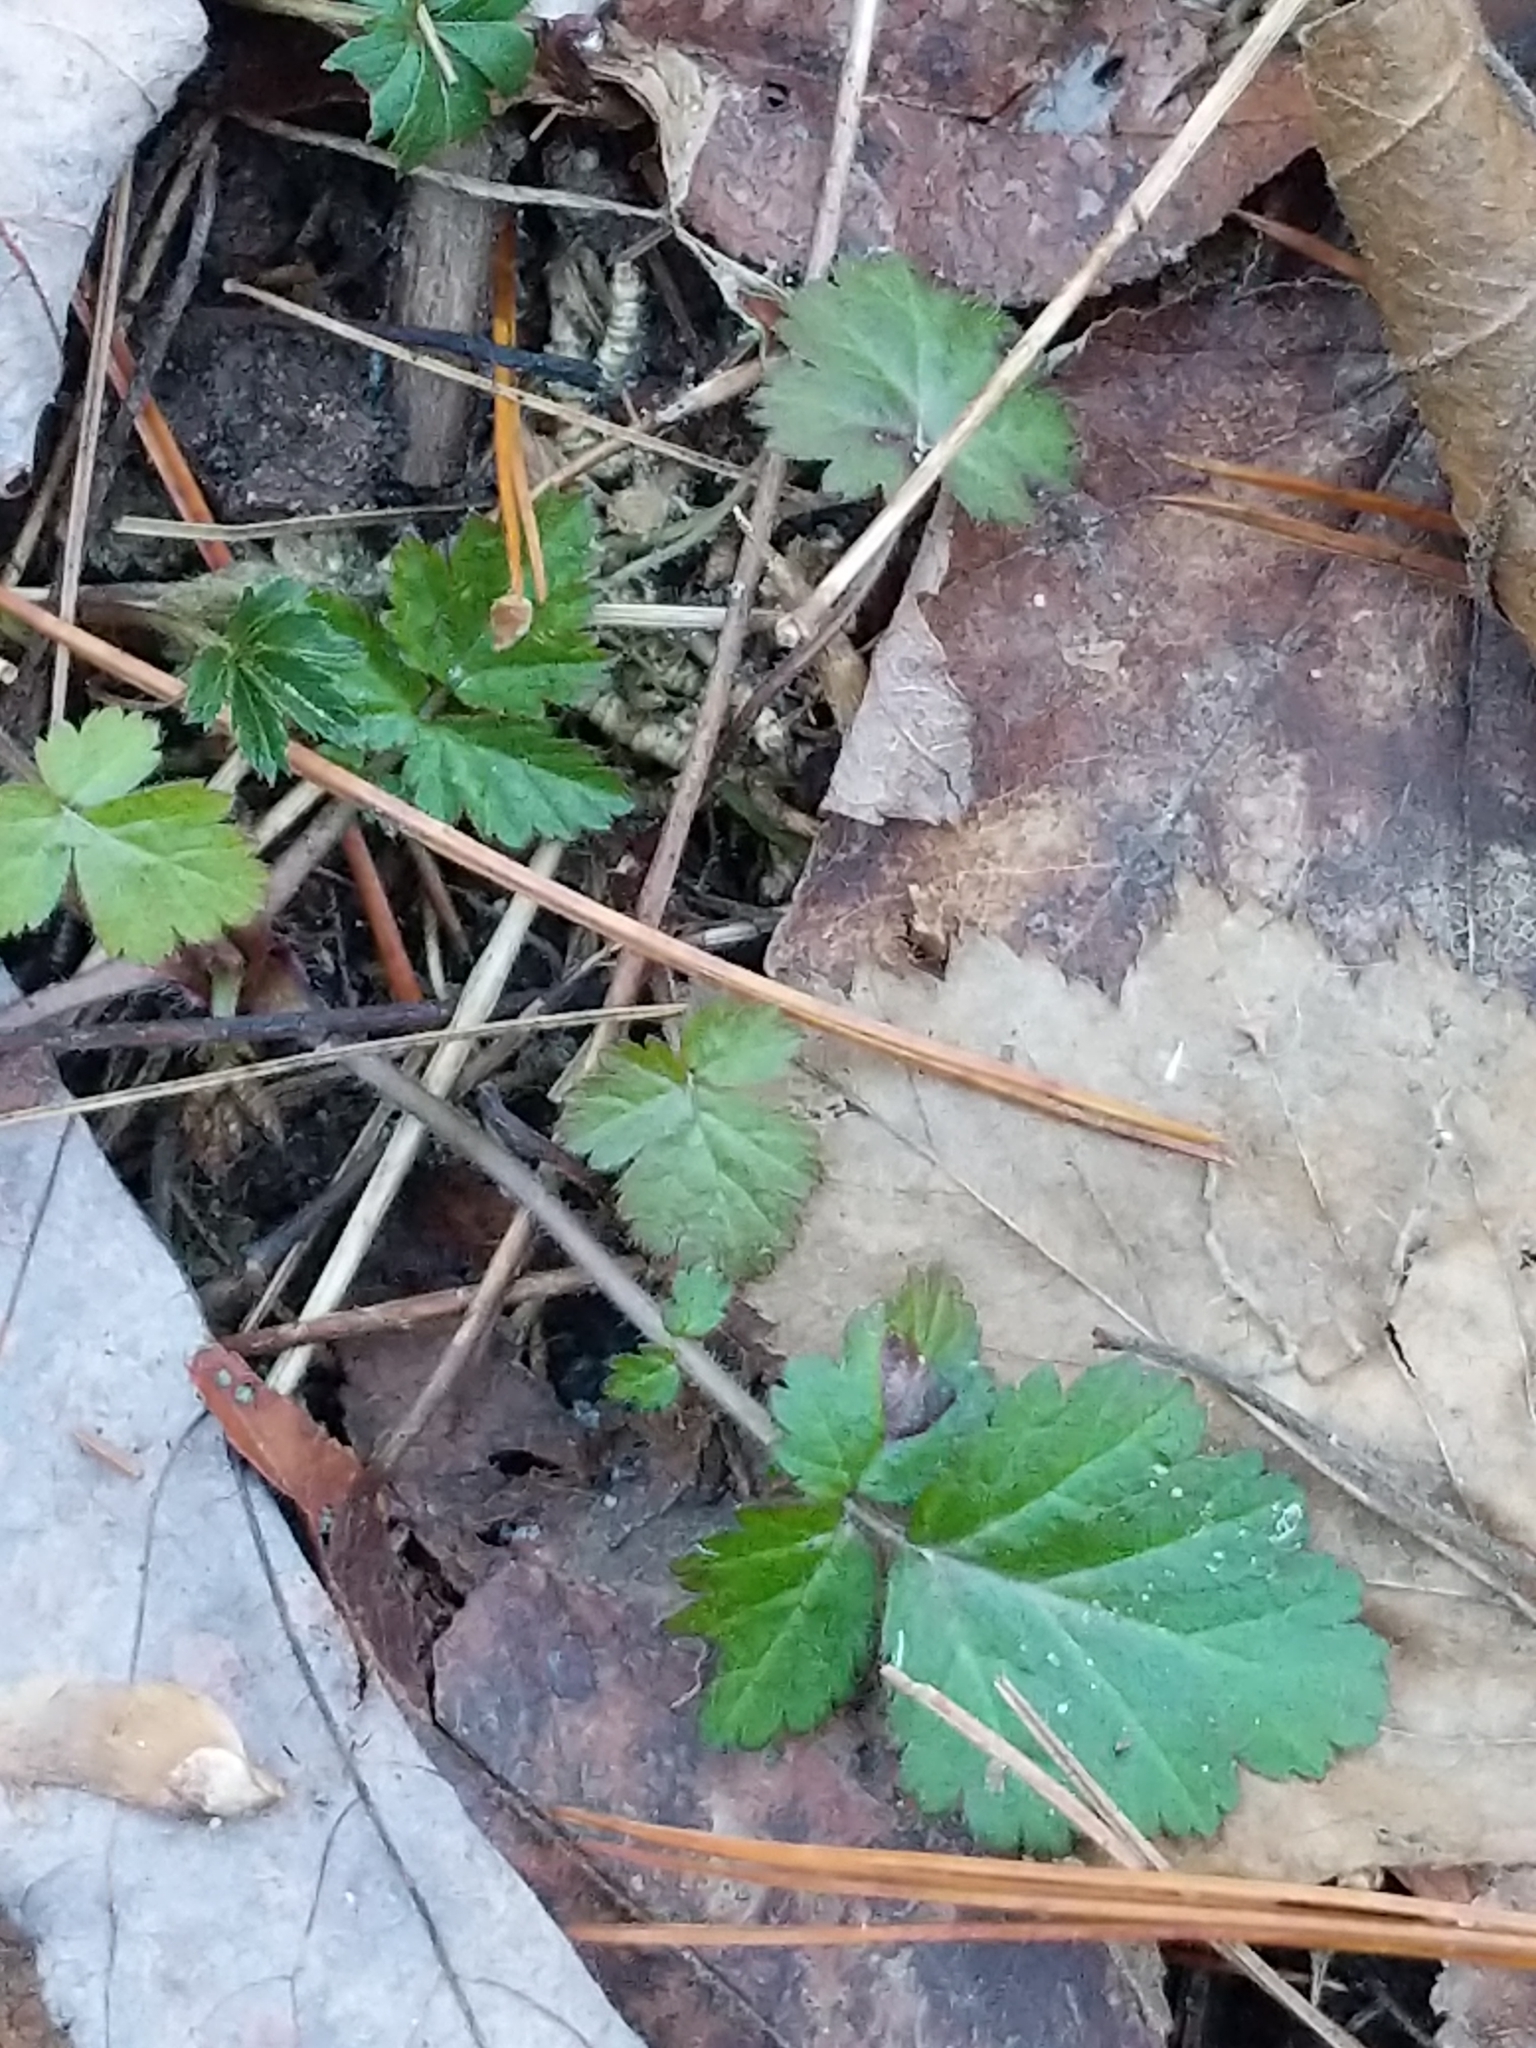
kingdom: Plantae
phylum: Tracheophyta
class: Magnoliopsida
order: Rosales
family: Rosaceae
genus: Geum
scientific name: Geum canadense
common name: White avens
